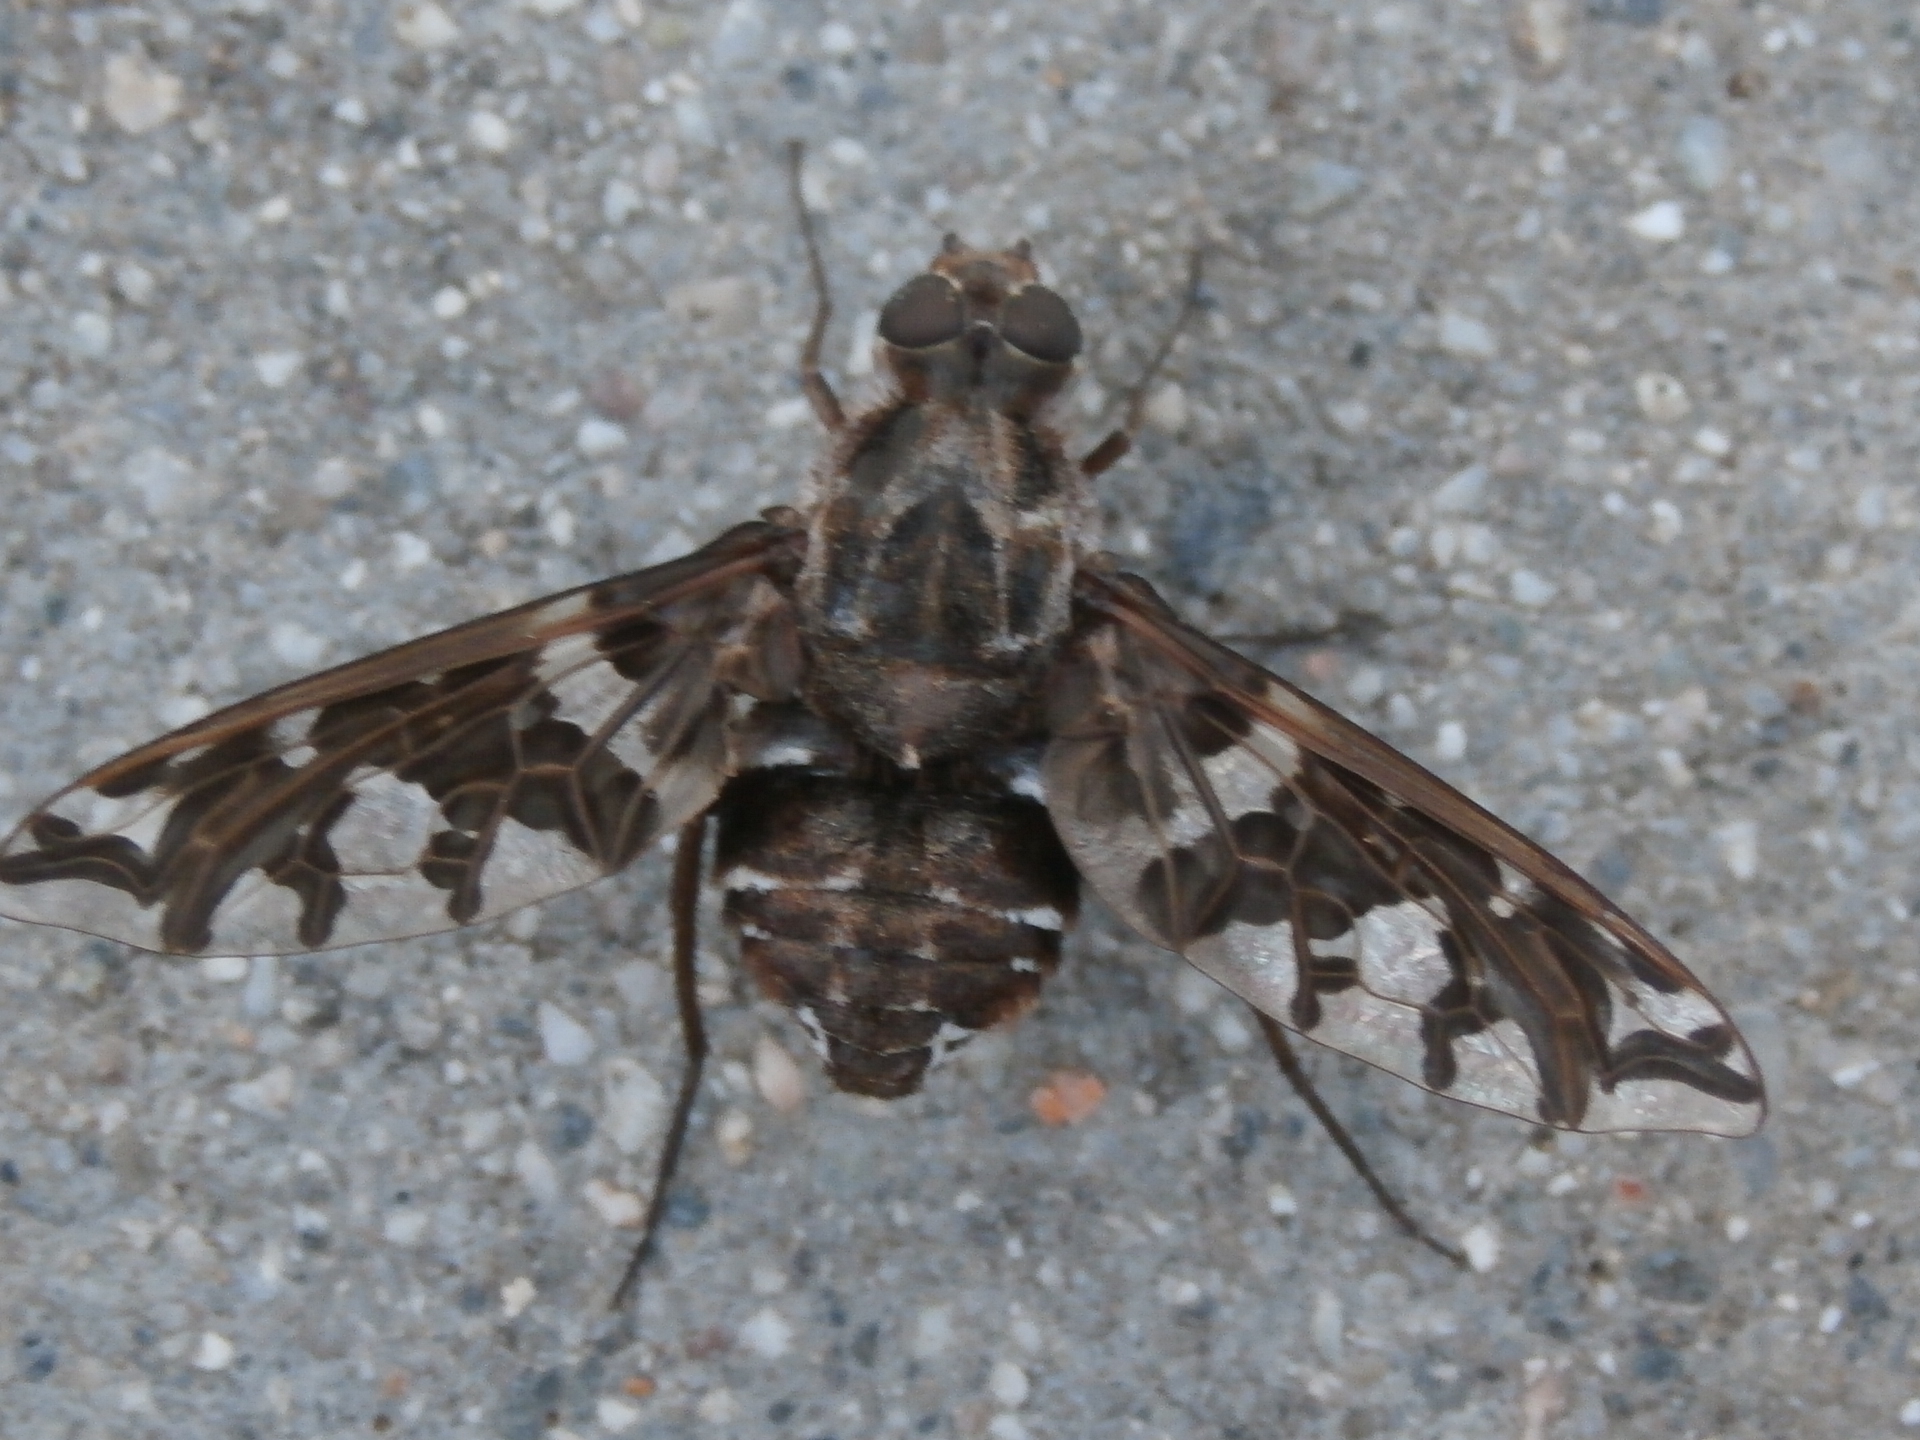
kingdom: Animalia
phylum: Arthropoda
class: Insecta
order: Diptera
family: Bombyliidae
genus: Xenox
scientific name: Xenox habrosus
